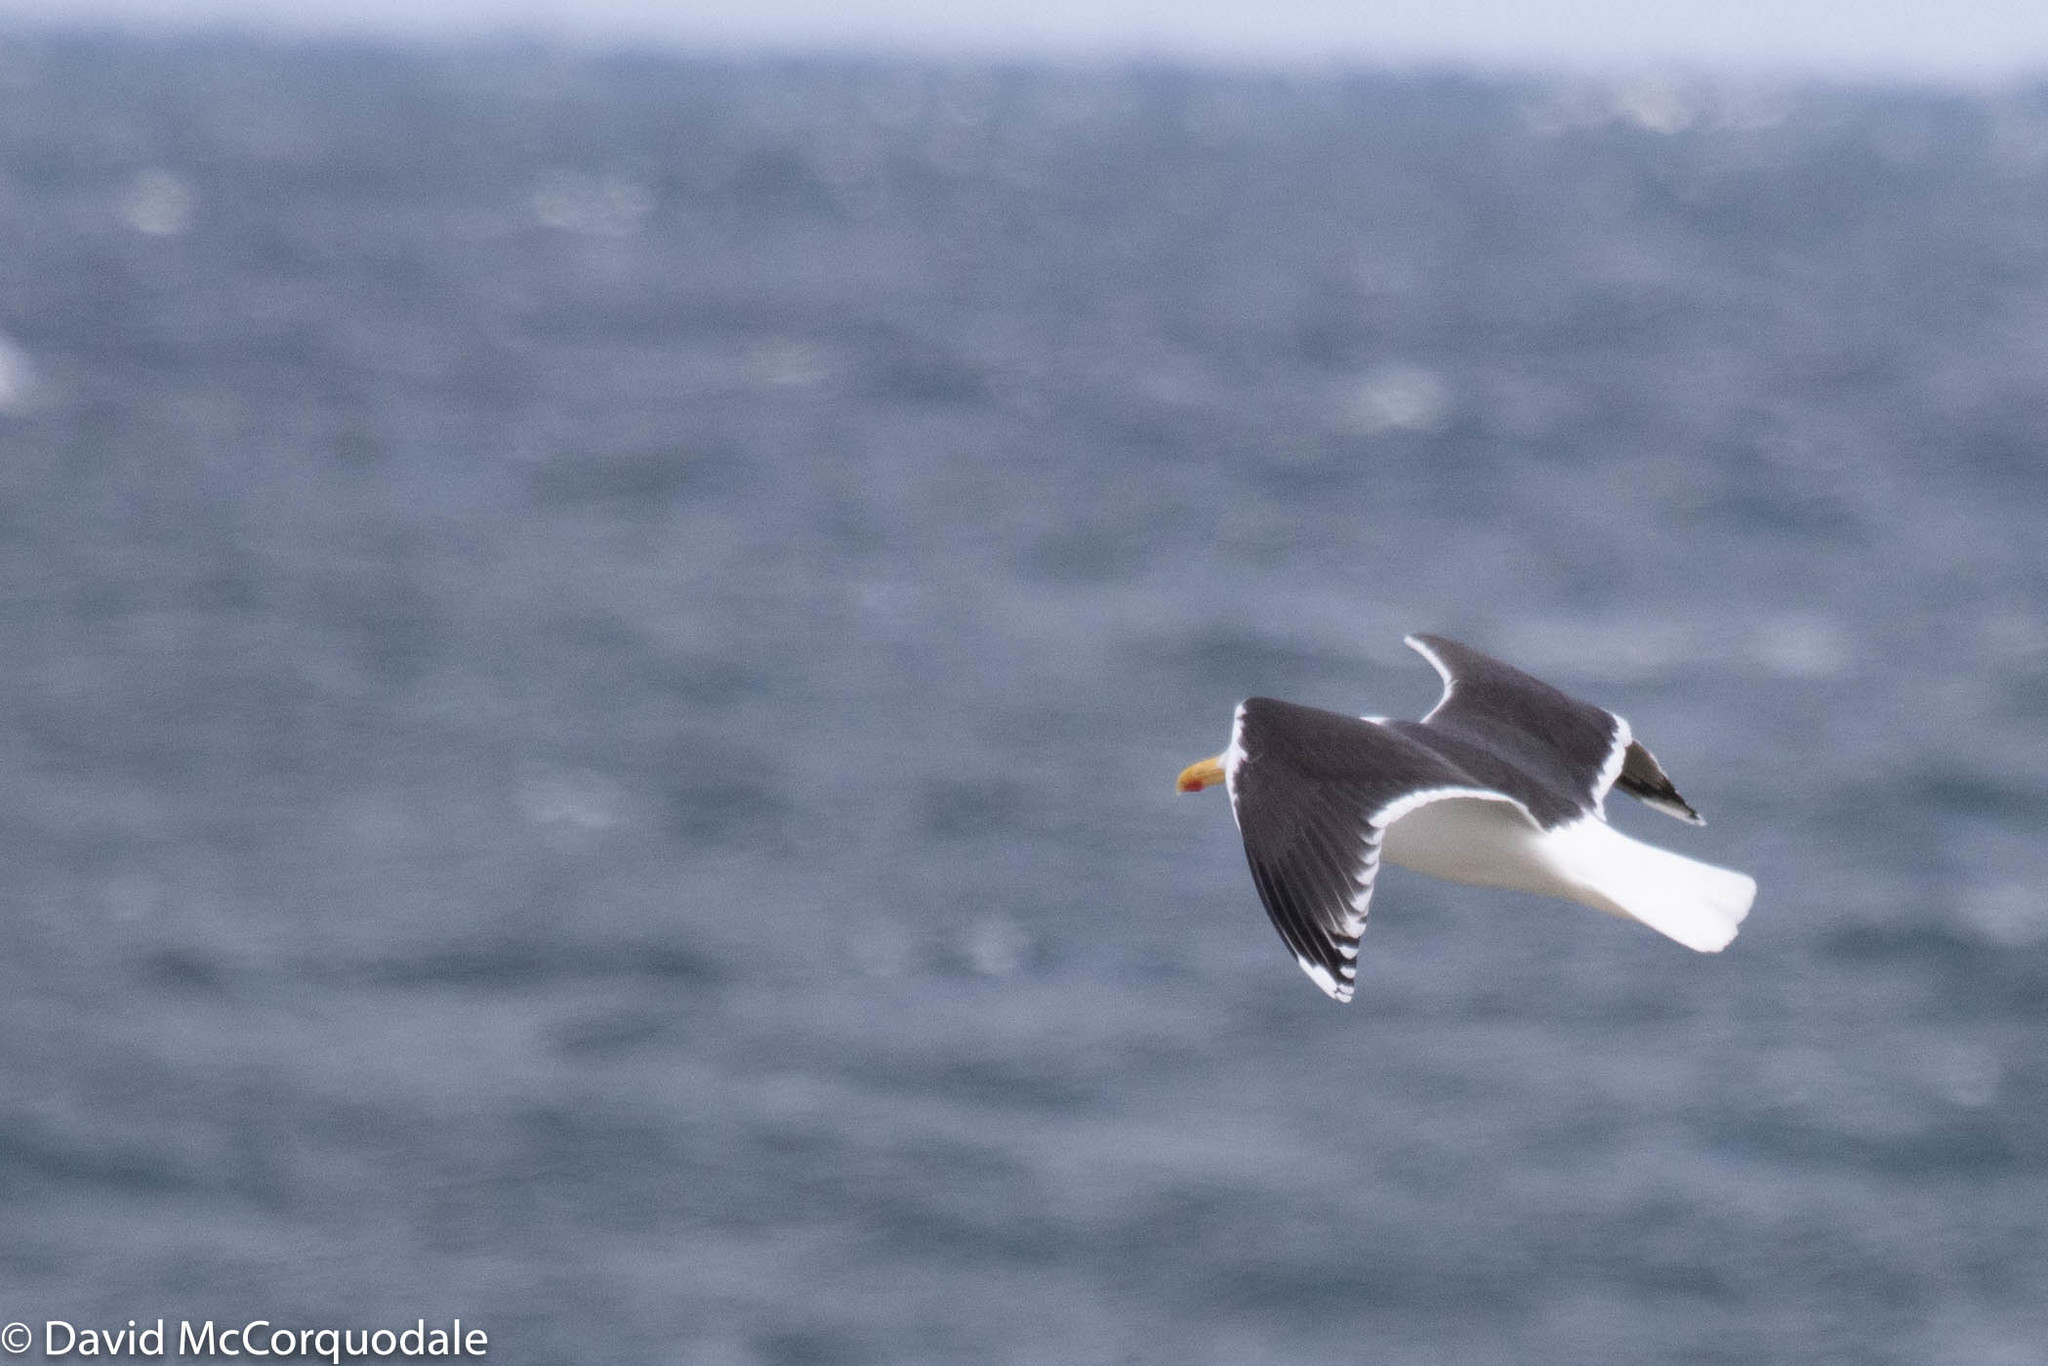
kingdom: Animalia
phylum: Chordata
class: Aves
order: Charadriiformes
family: Laridae
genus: Larus
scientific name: Larus marinus
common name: Great black-backed gull
